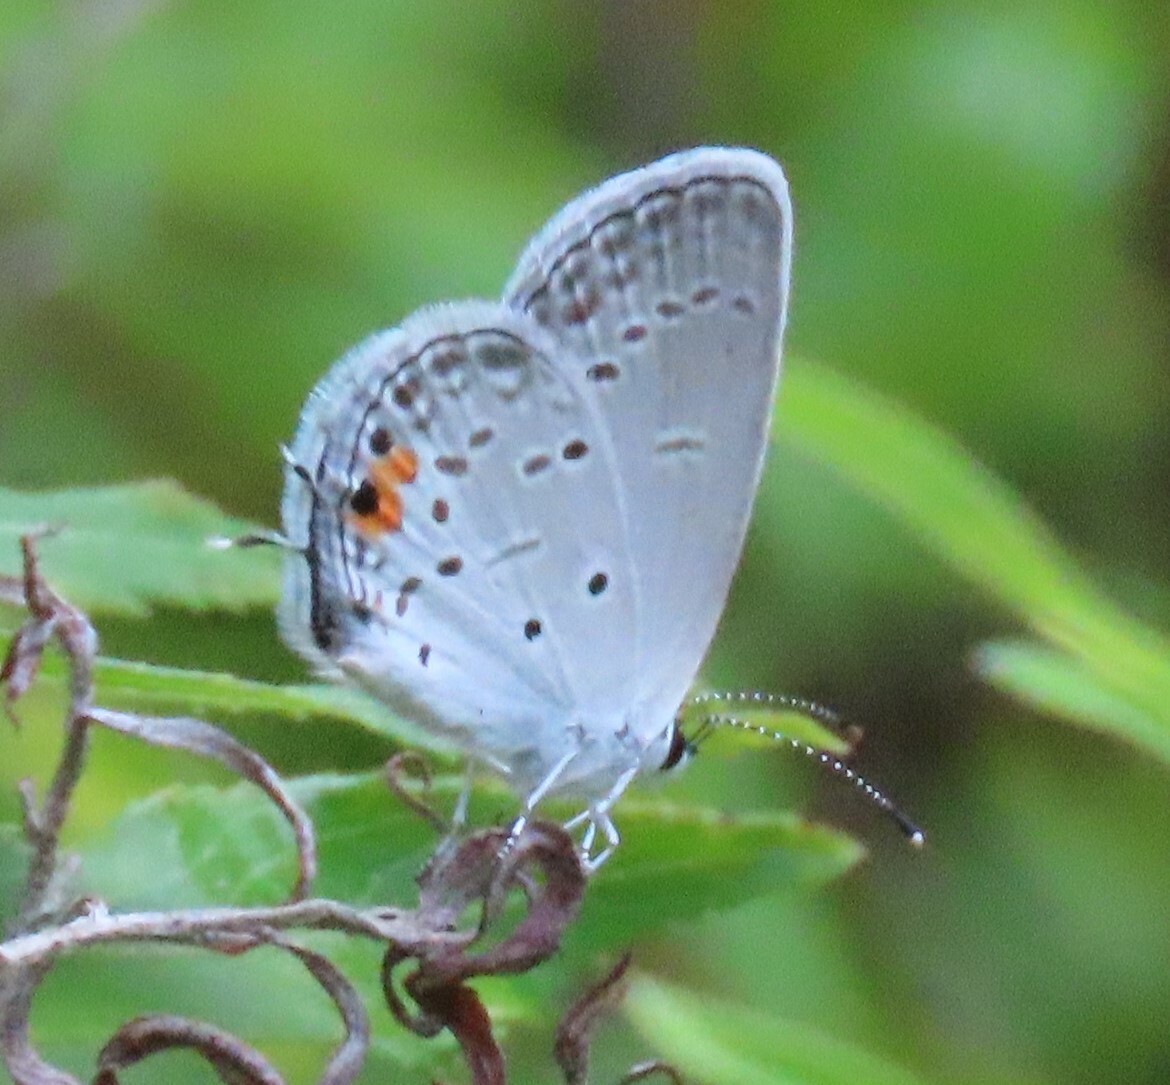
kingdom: Animalia
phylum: Arthropoda
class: Insecta
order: Lepidoptera
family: Lycaenidae
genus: Elkalyce
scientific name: Elkalyce comyntas
